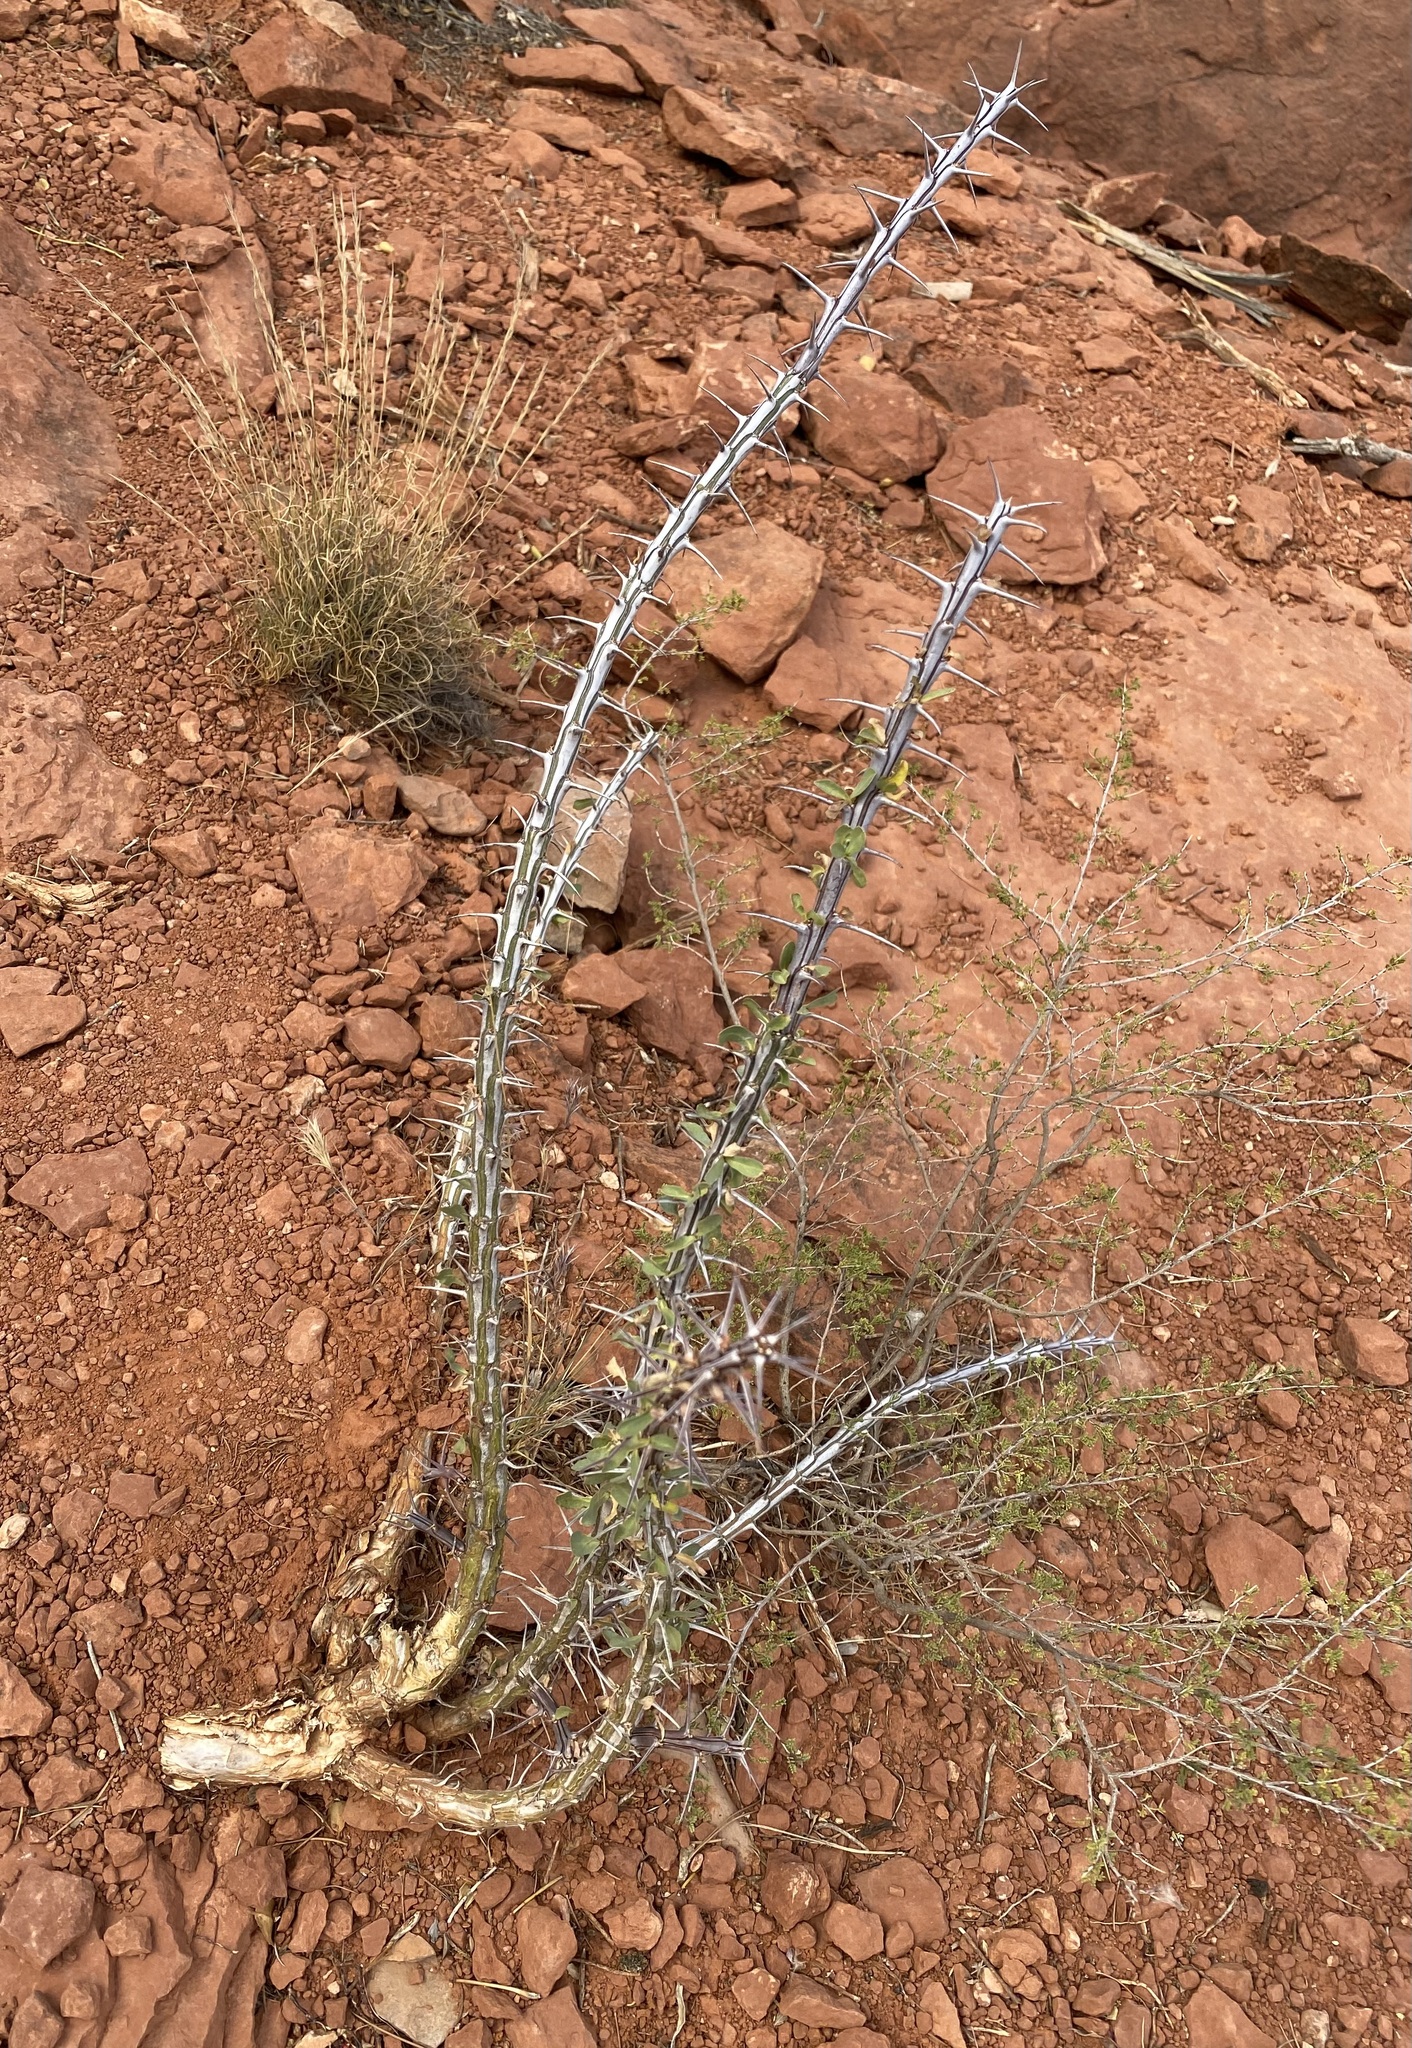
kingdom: Plantae
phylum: Tracheophyta
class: Magnoliopsida
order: Ericales
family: Fouquieriaceae
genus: Fouquieria
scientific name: Fouquieria splendens
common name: Vine-cactus
